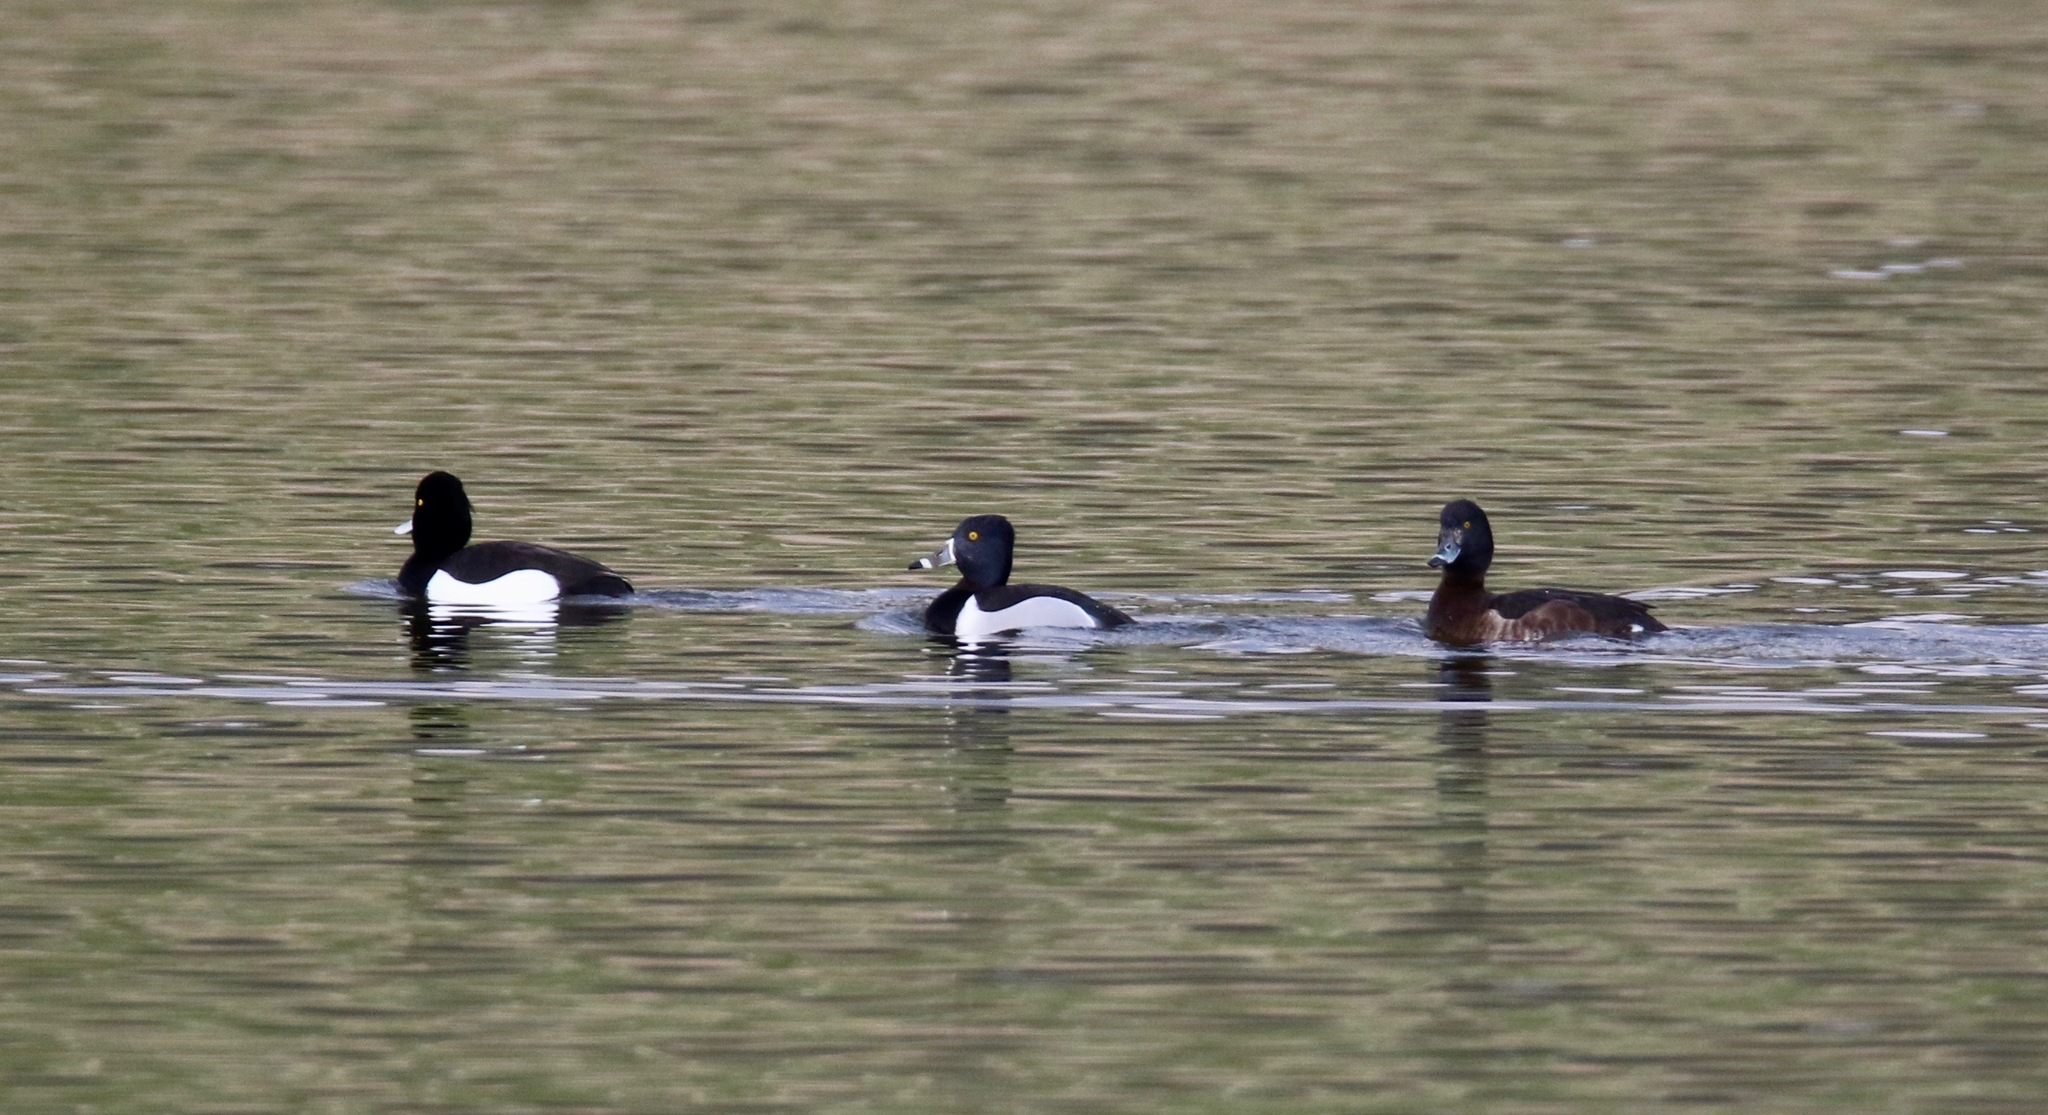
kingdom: Animalia
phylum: Chordata
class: Aves
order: Anseriformes
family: Anatidae
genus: Aythya
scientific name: Aythya collaris
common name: Ring-necked duck
